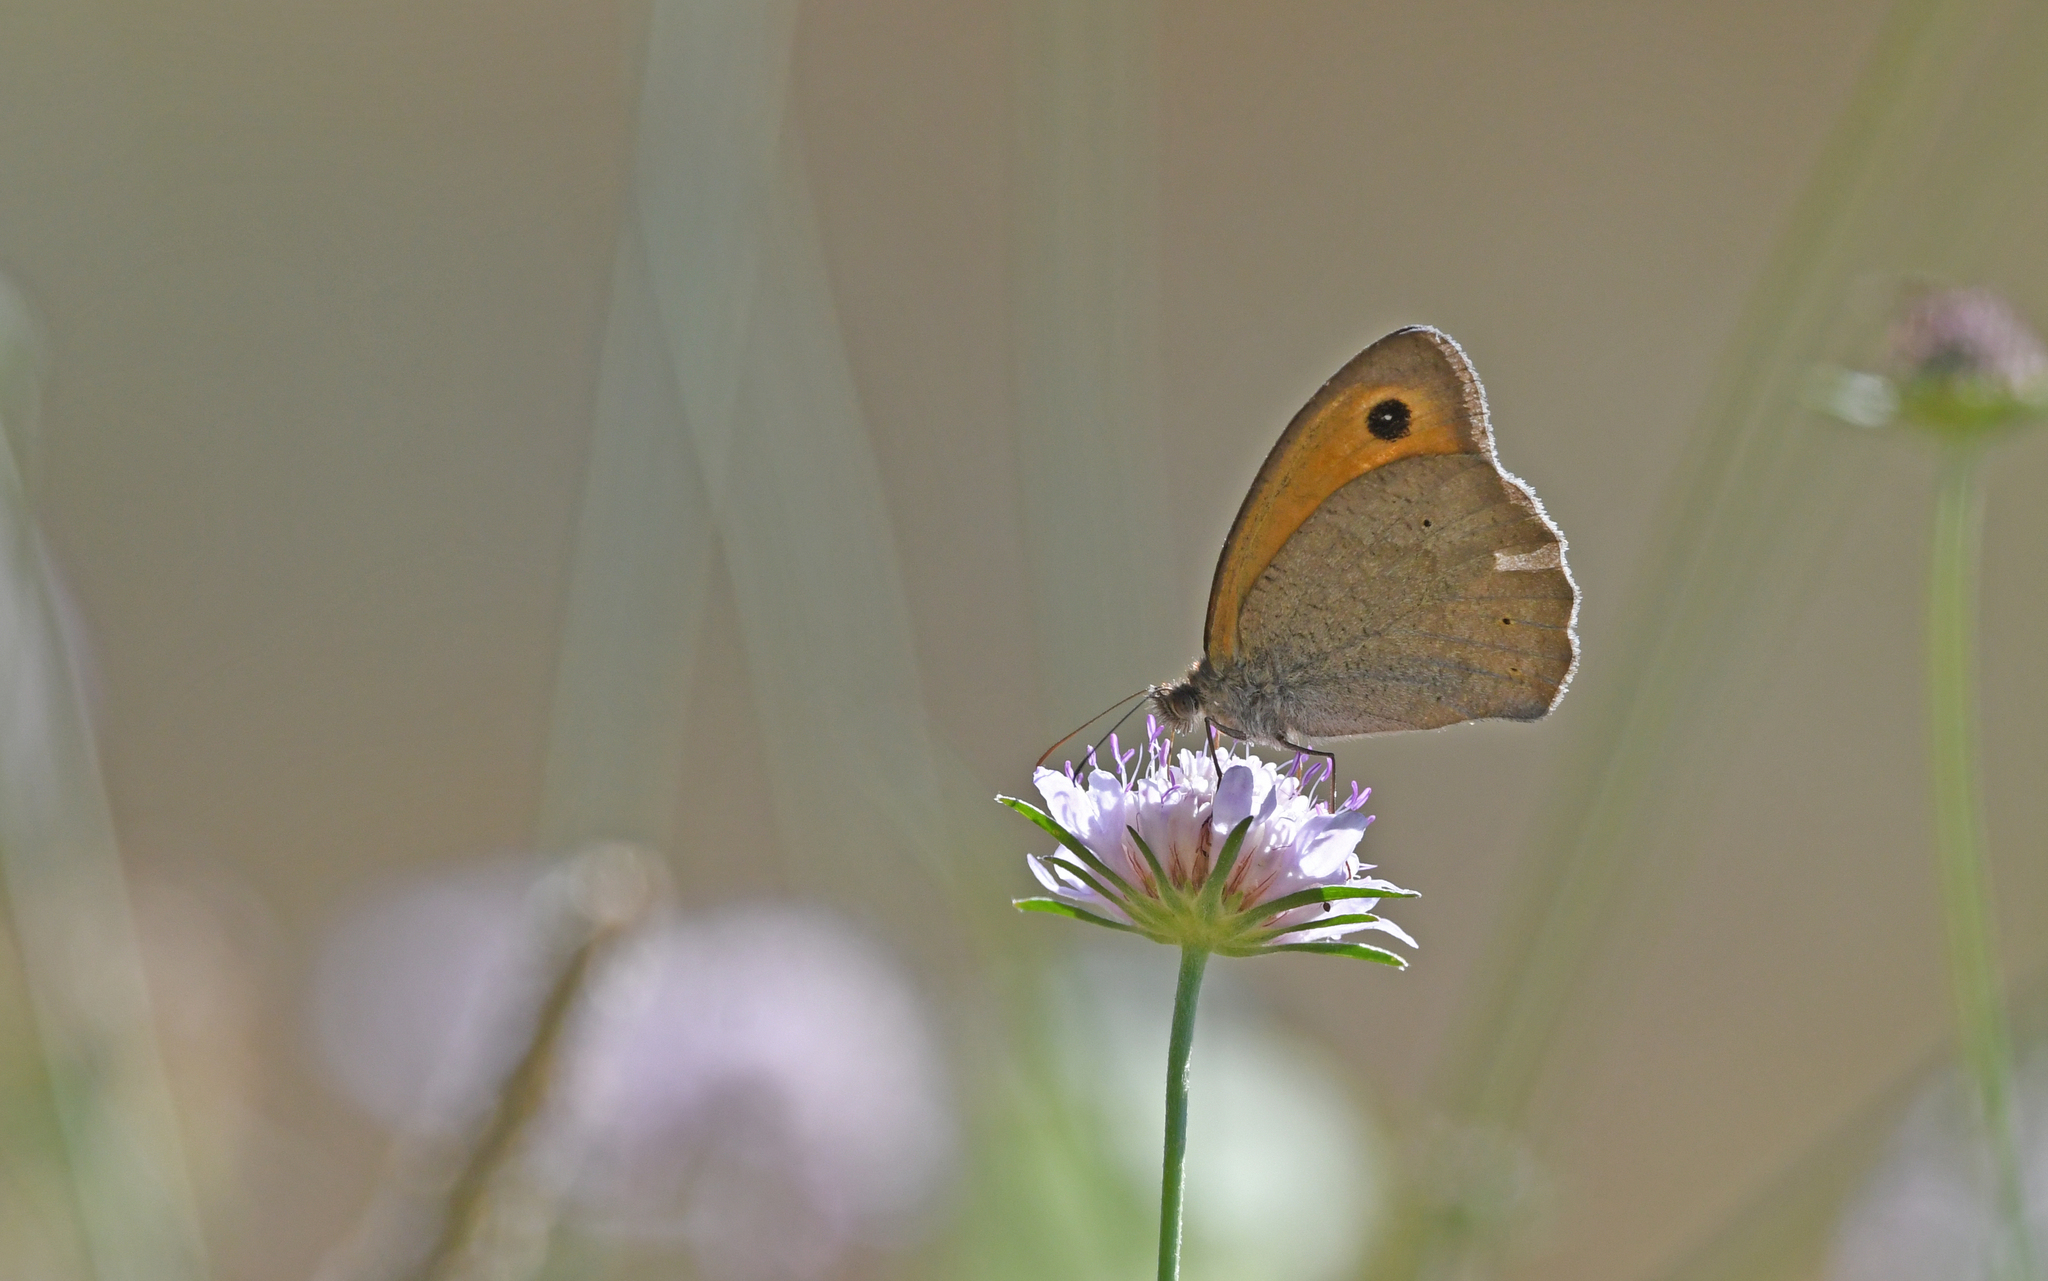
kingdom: Animalia
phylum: Arthropoda
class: Insecta
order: Lepidoptera
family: Nymphalidae
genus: Maniola
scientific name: Maniola jurtina
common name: Meadow brown
